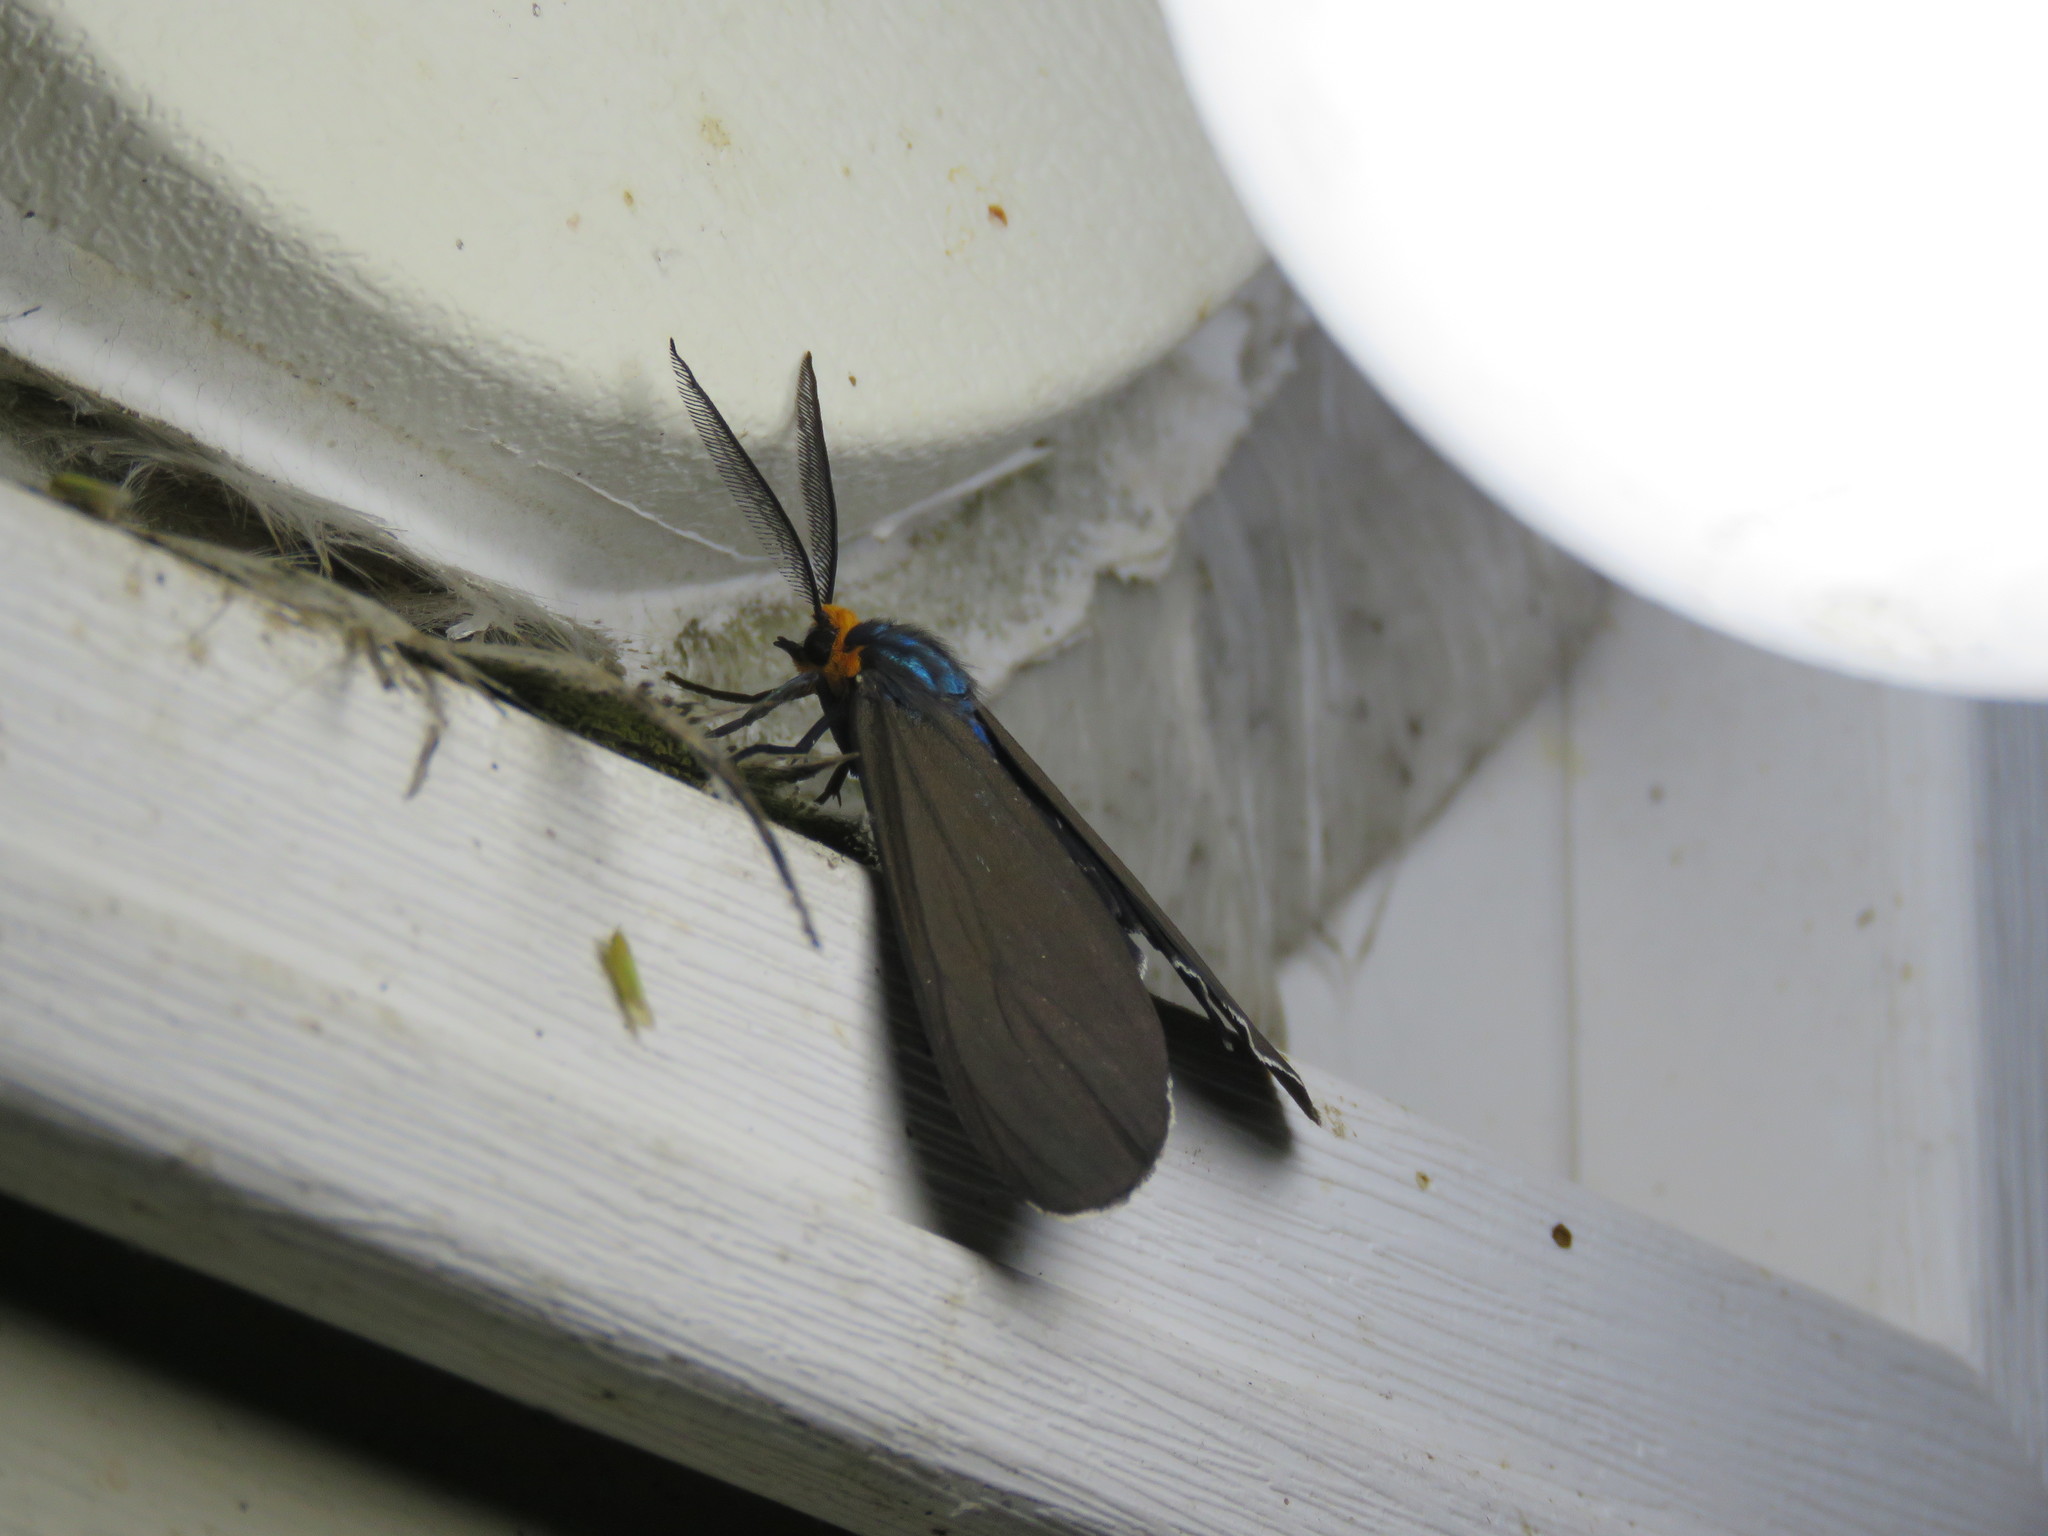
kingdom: Animalia
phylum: Arthropoda
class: Insecta
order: Lepidoptera
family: Erebidae
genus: Ctenucha
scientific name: Ctenucha virginica
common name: Virginia ctenucha moth
